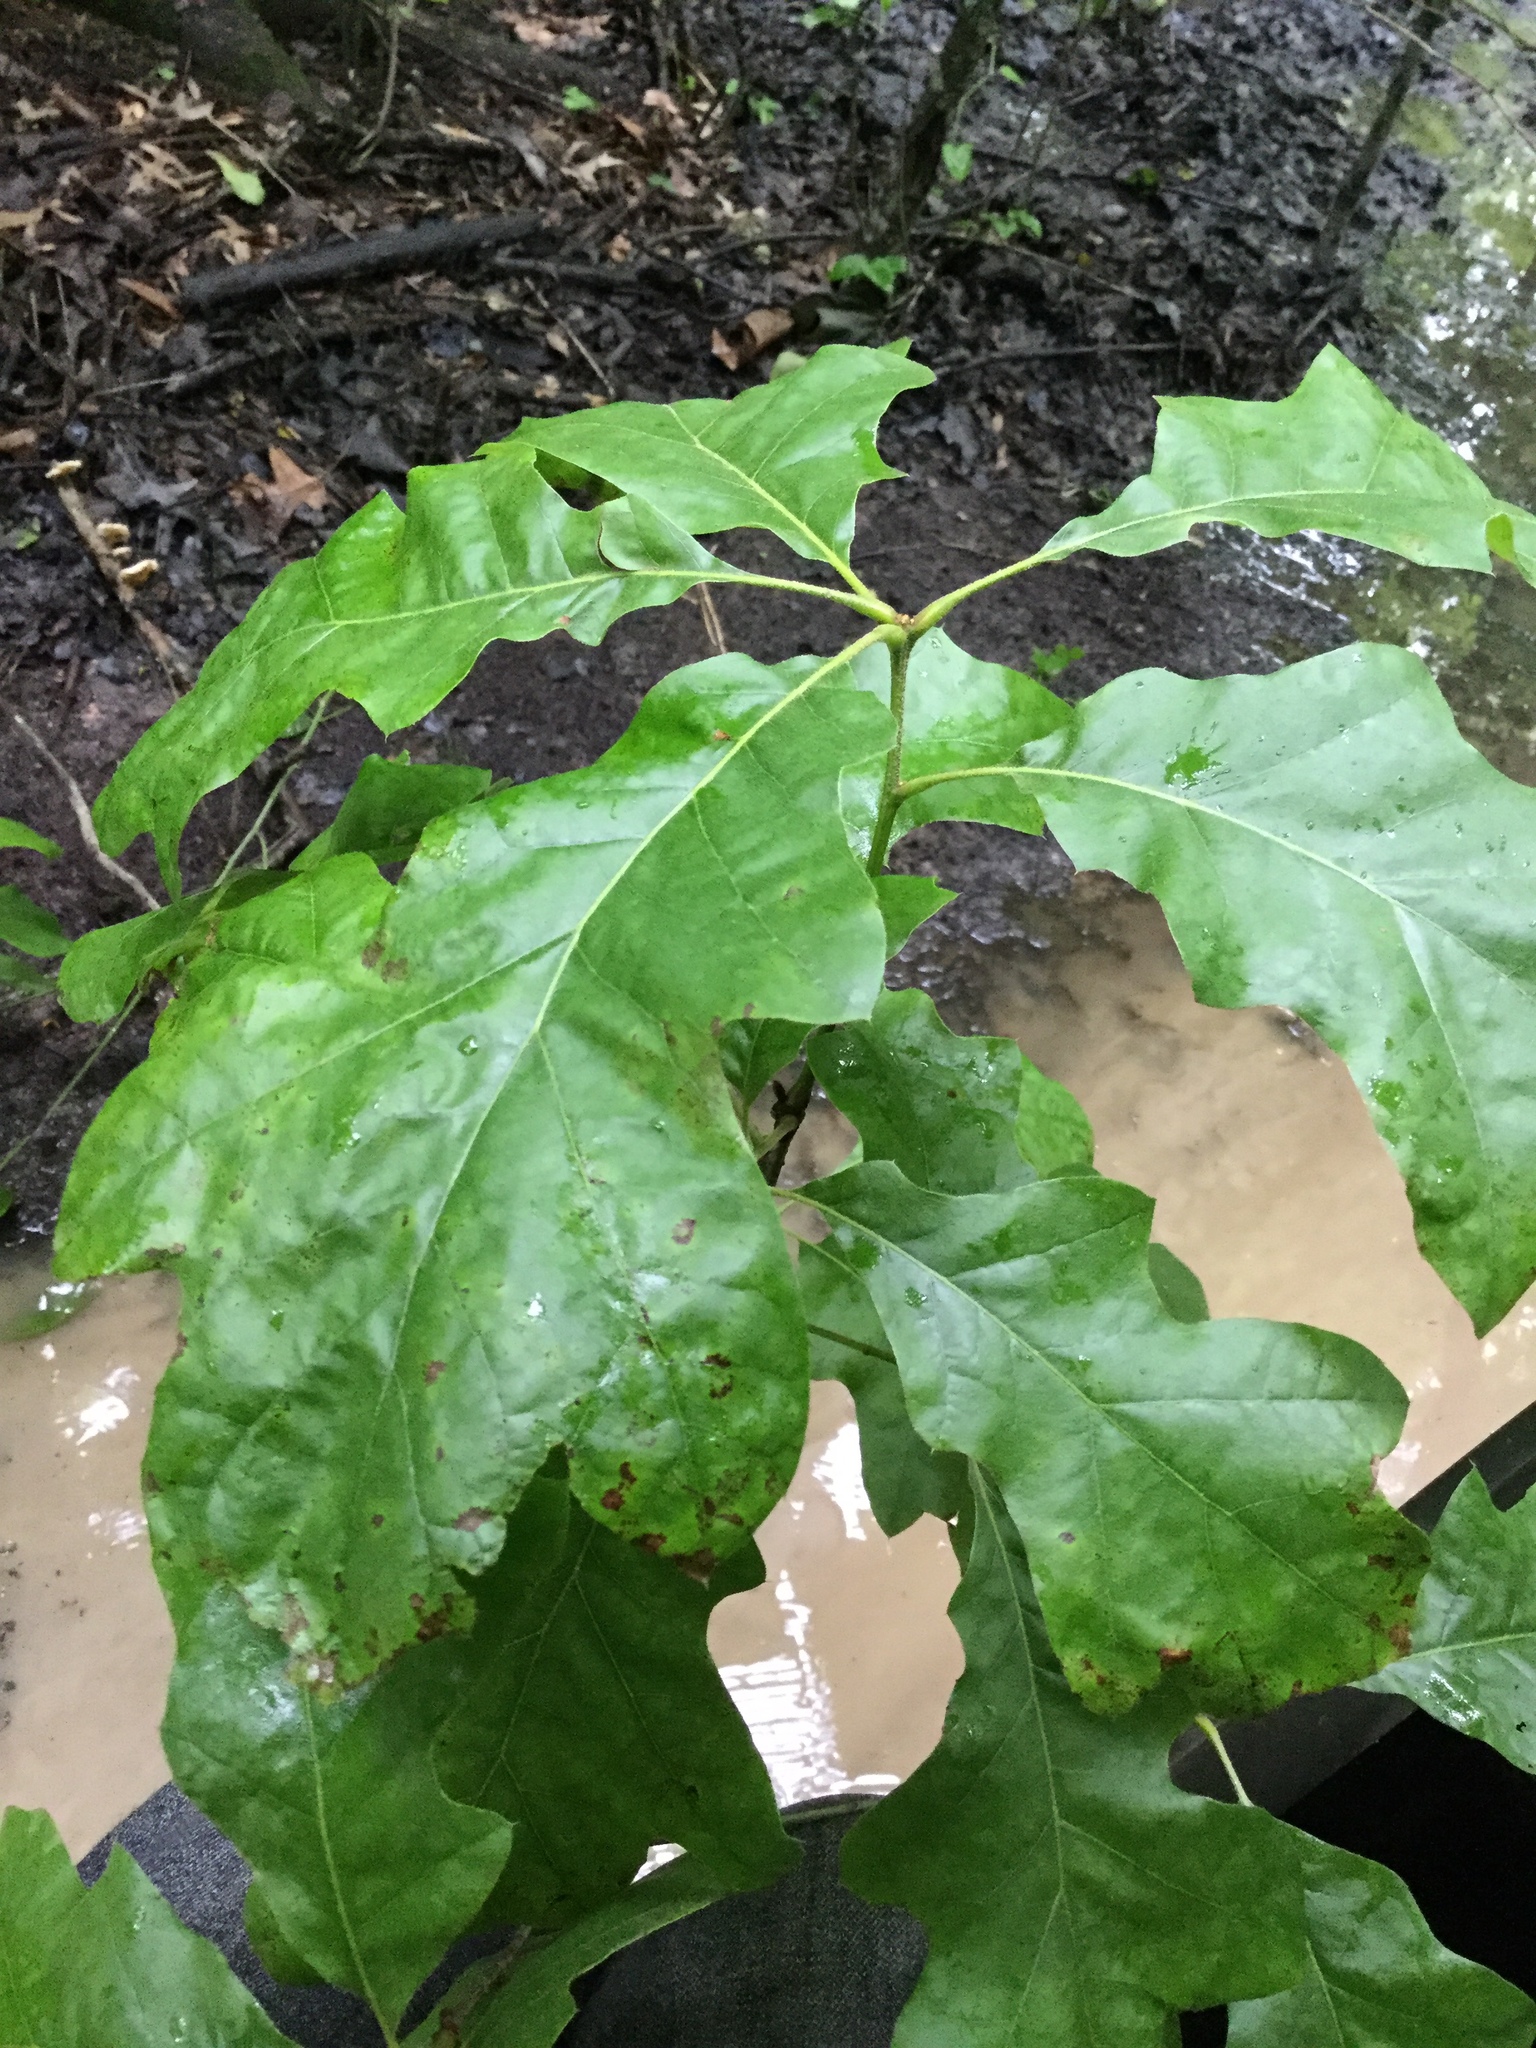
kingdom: Plantae
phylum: Tracheophyta
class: Magnoliopsida
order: Fagales
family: Fagaceae
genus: Quercus
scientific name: Quercus pagoda
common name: Cherrybark oak
